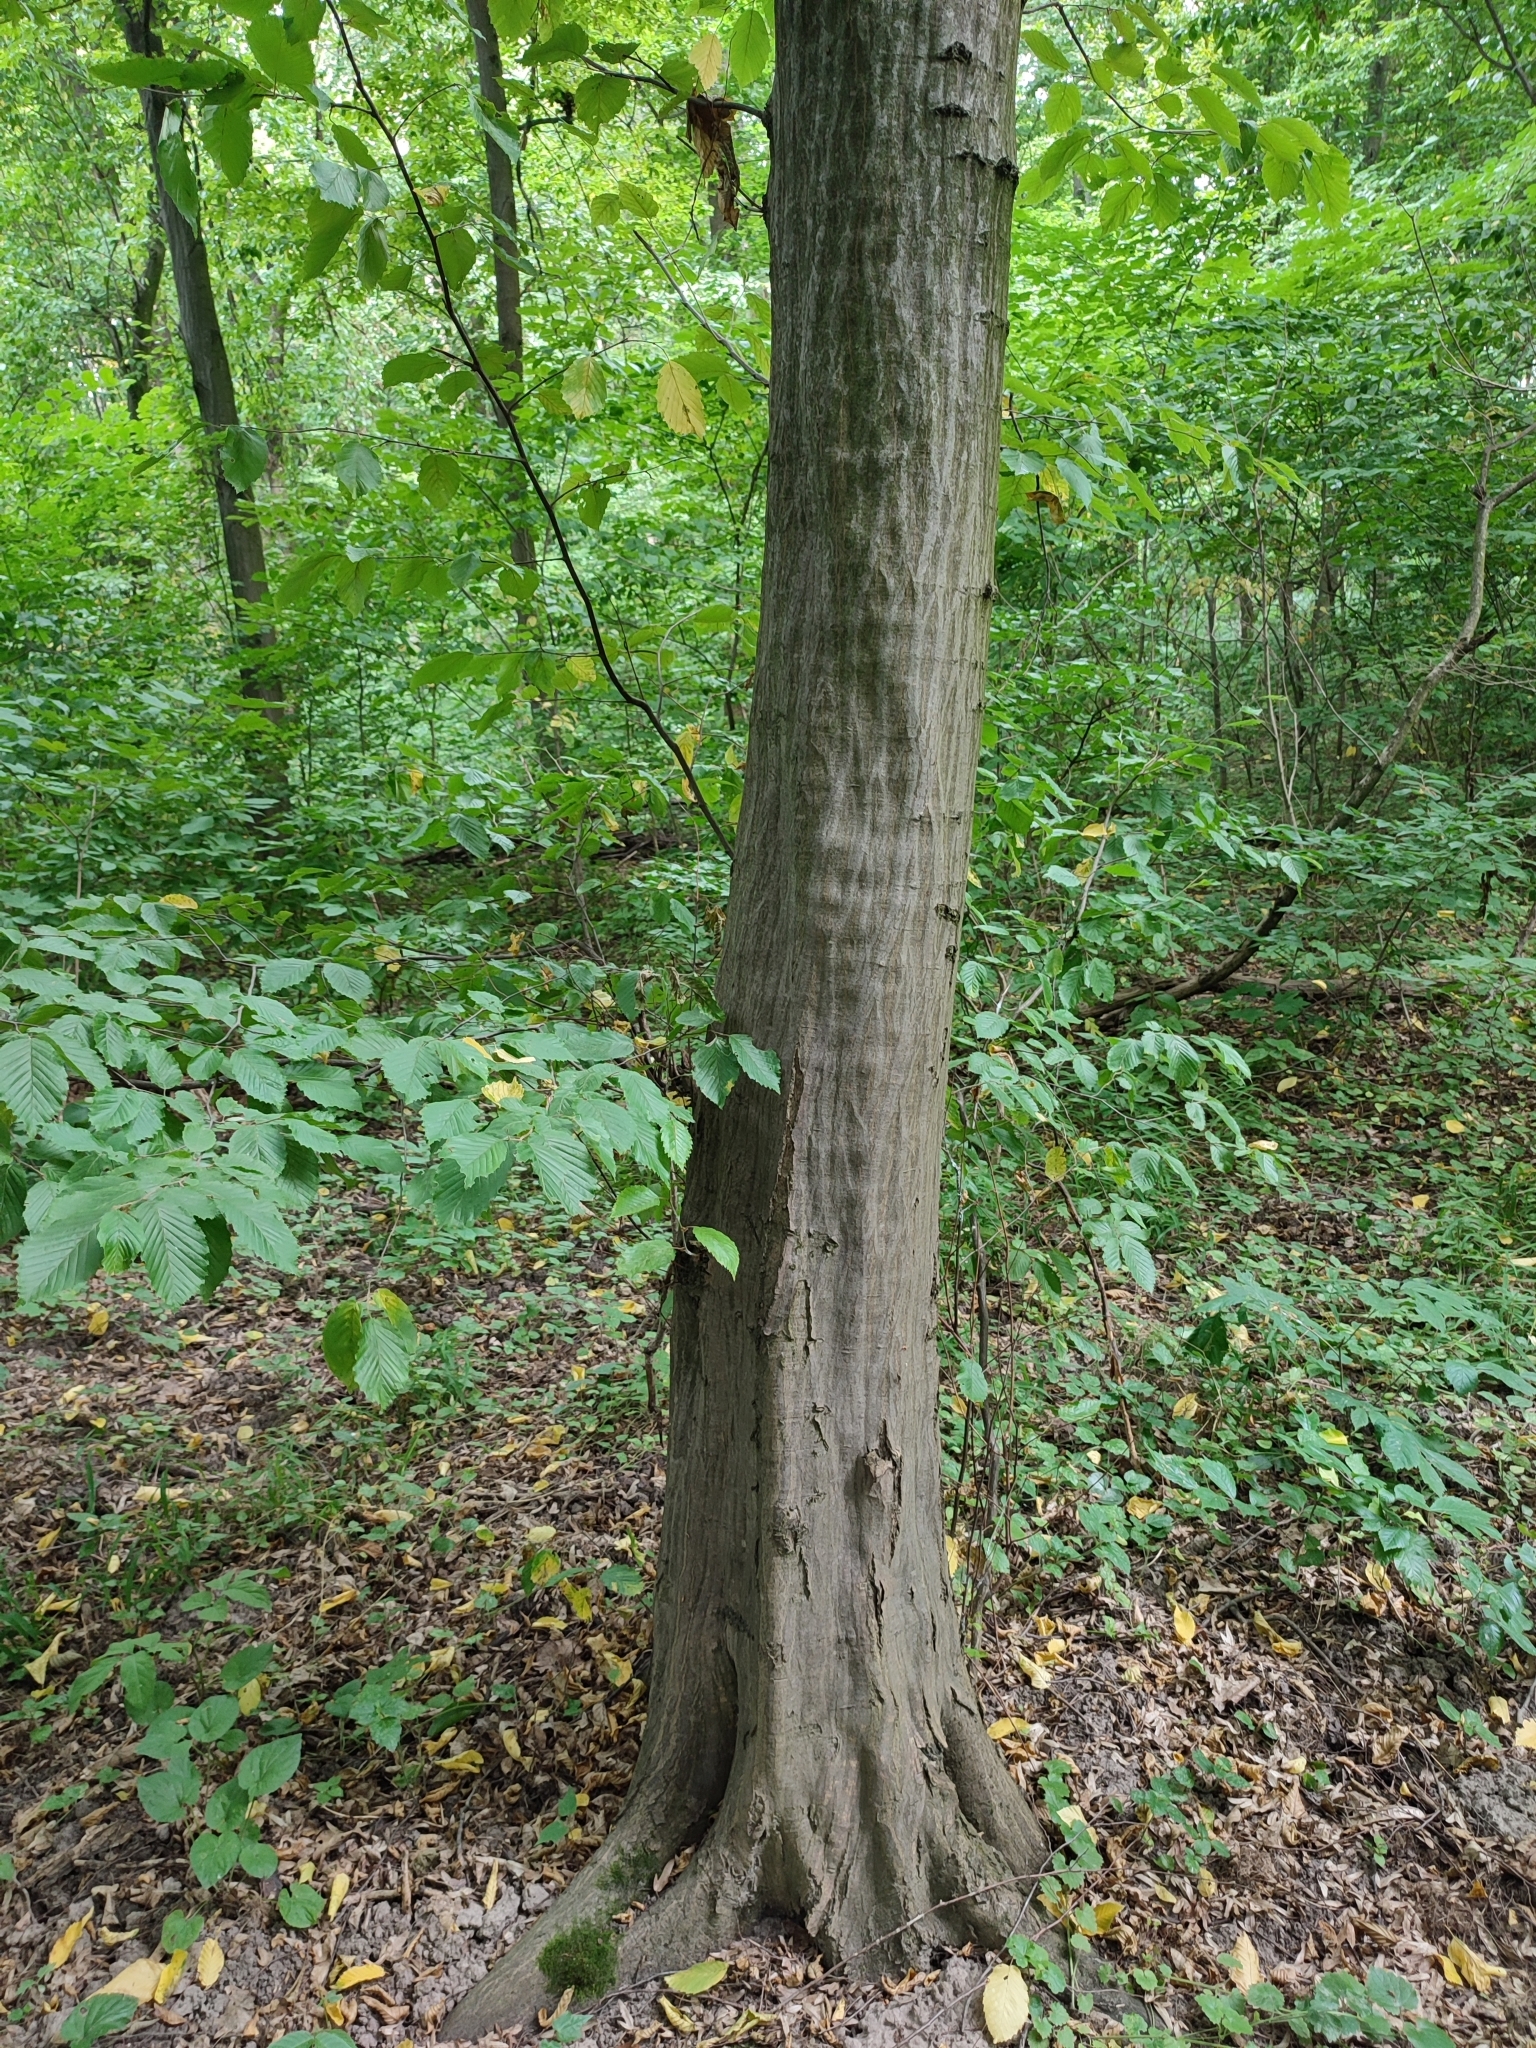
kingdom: Plantae
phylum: Tracheophyta
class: Magnoliopsida
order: Fagales
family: Betulaceae
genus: Carpinus
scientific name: Carpinus betulus
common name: Hornbeam
